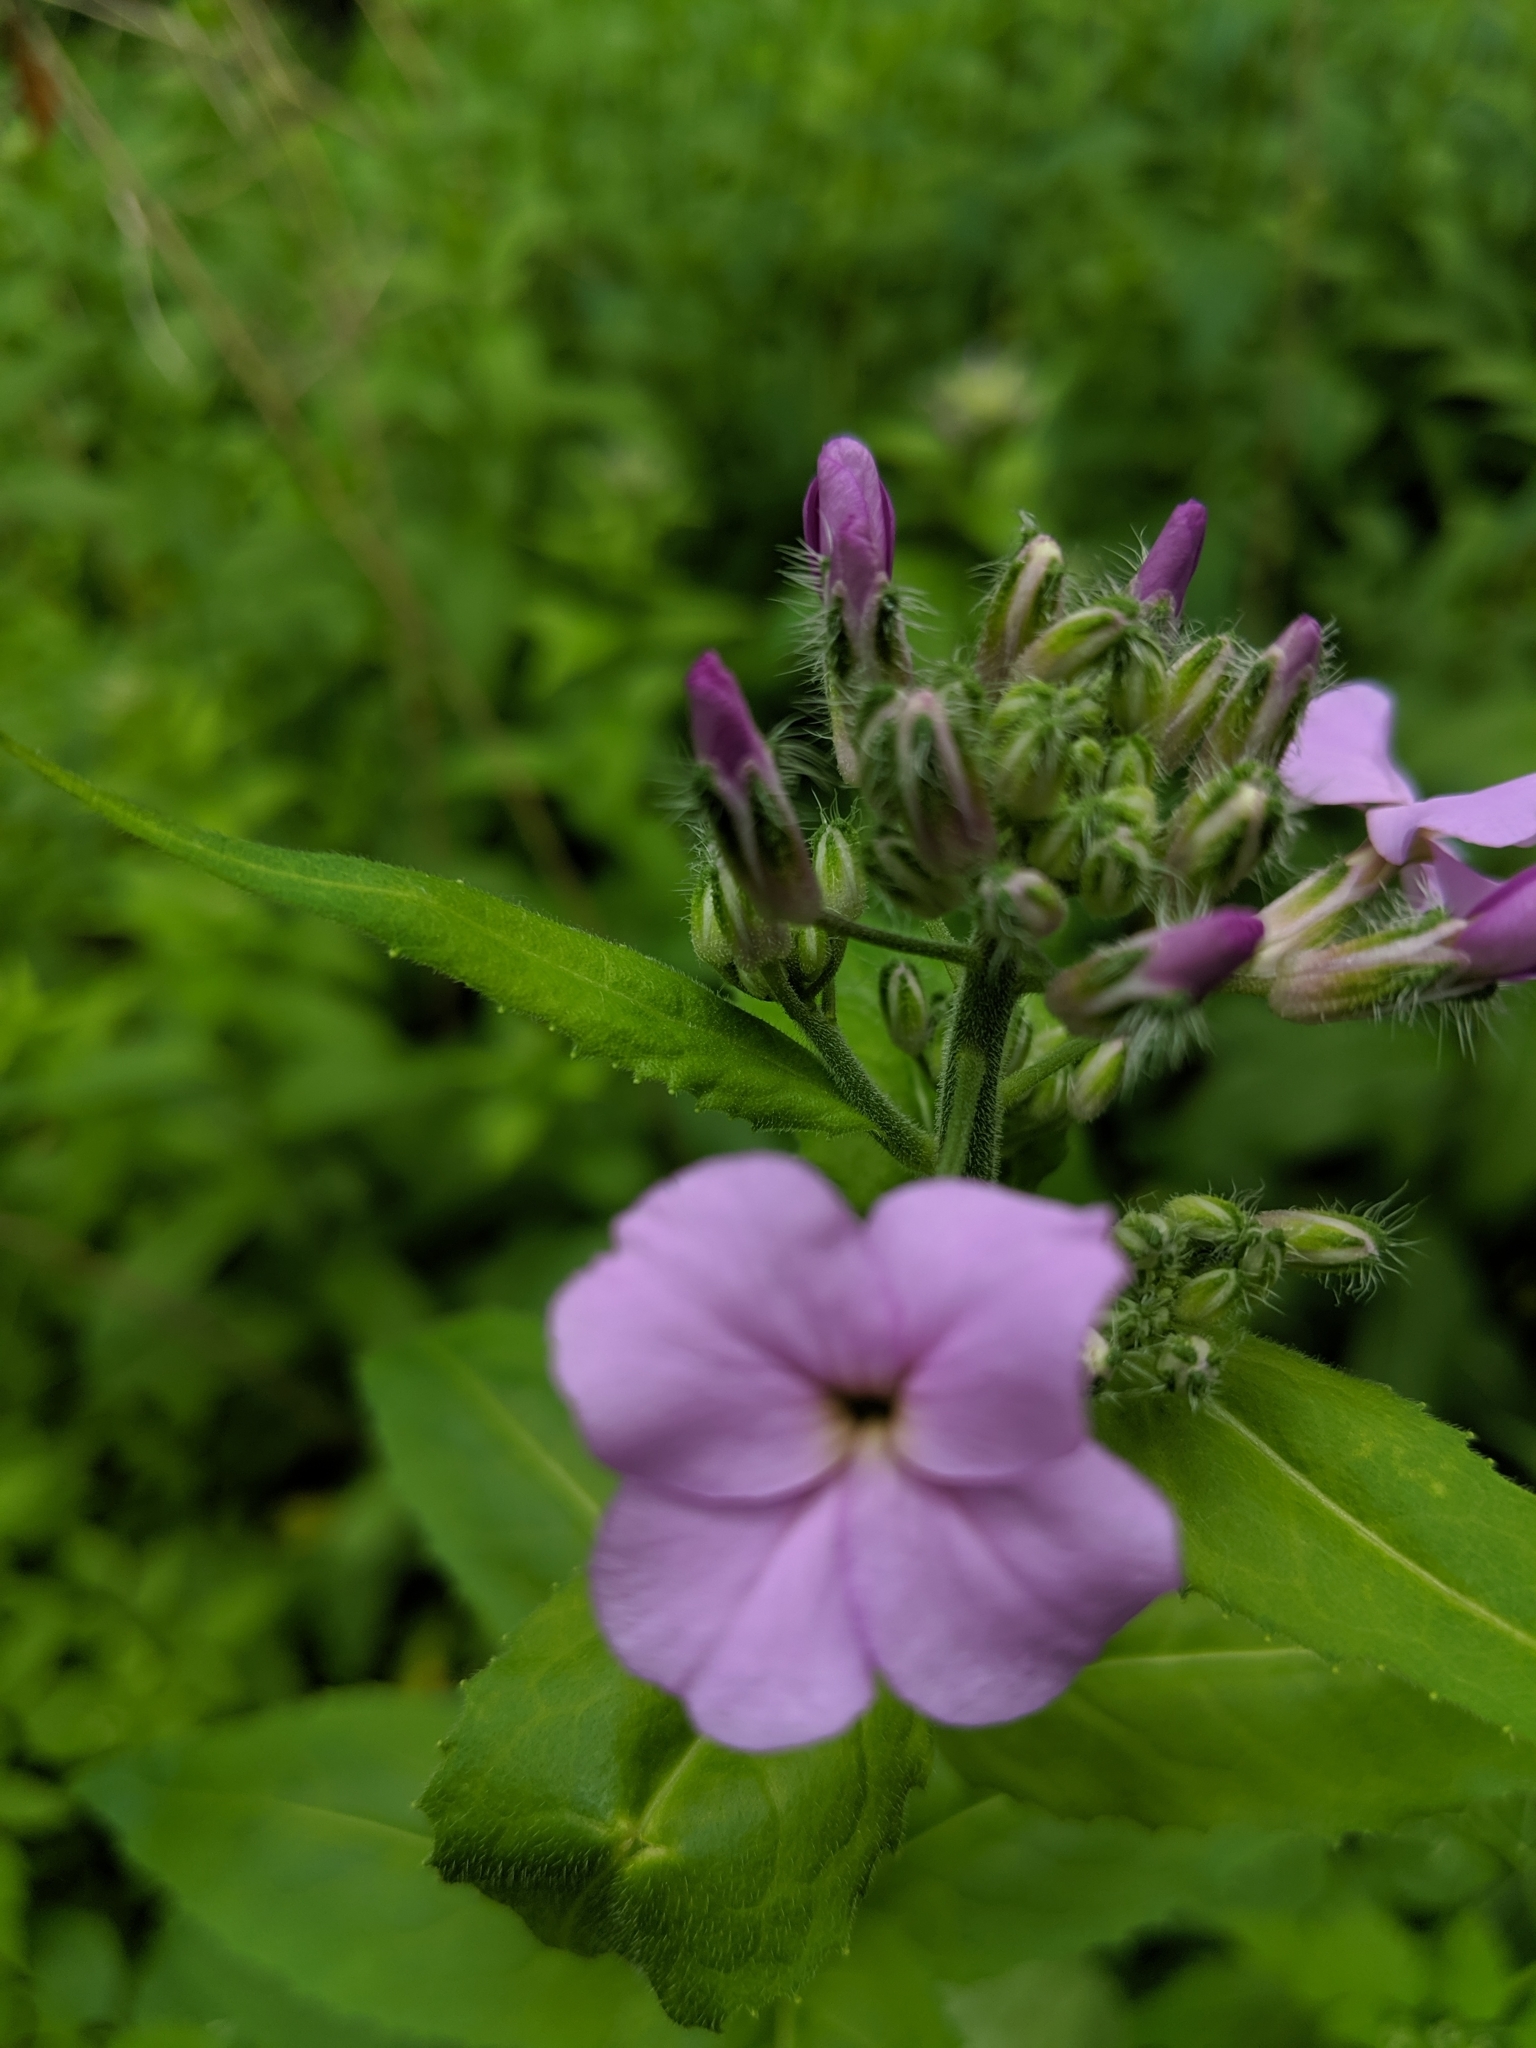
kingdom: Plantae
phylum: Tracheophyta
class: Magnoliopsida
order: Brassicales
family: Brassicaceae
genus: Hesperis
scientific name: Hesperis matronalis
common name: Dame's-violet
